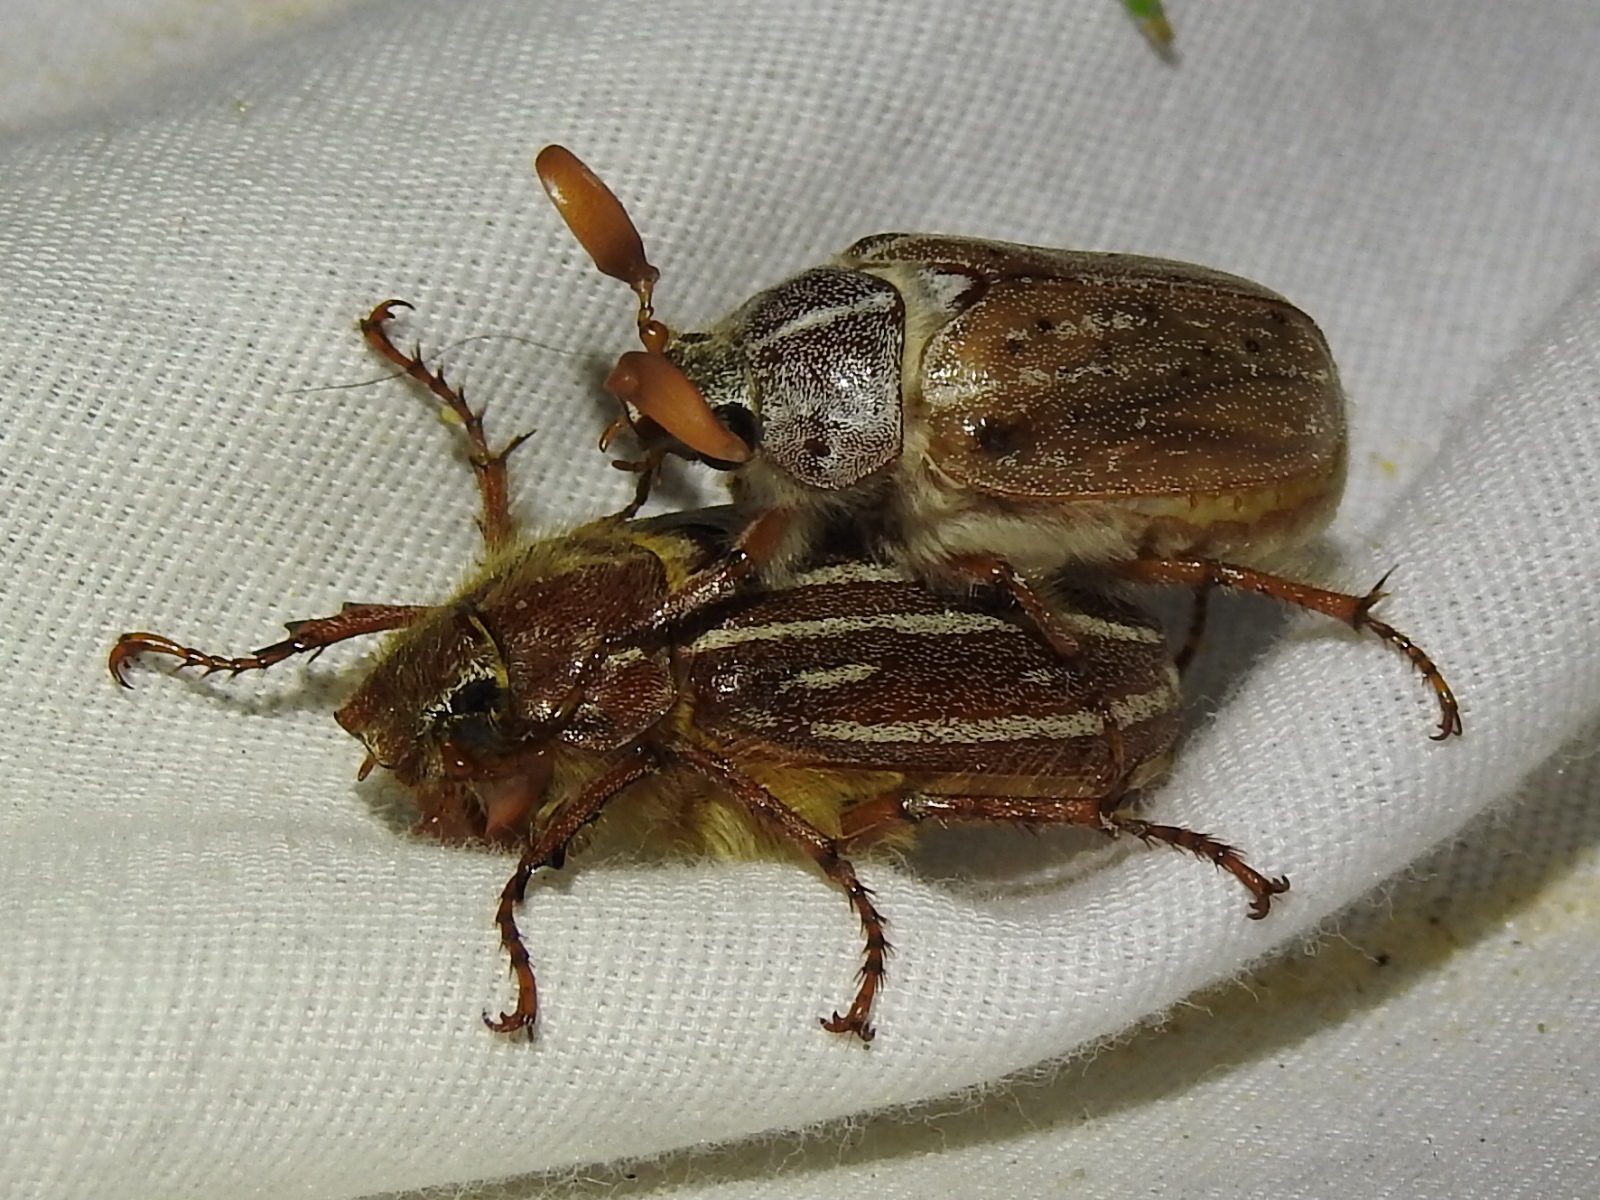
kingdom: Animalia
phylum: Arthropoda
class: Insecta
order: Coleoptera
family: Scarabaeidae
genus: Polyphylla
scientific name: Polyphylla pottsorum
